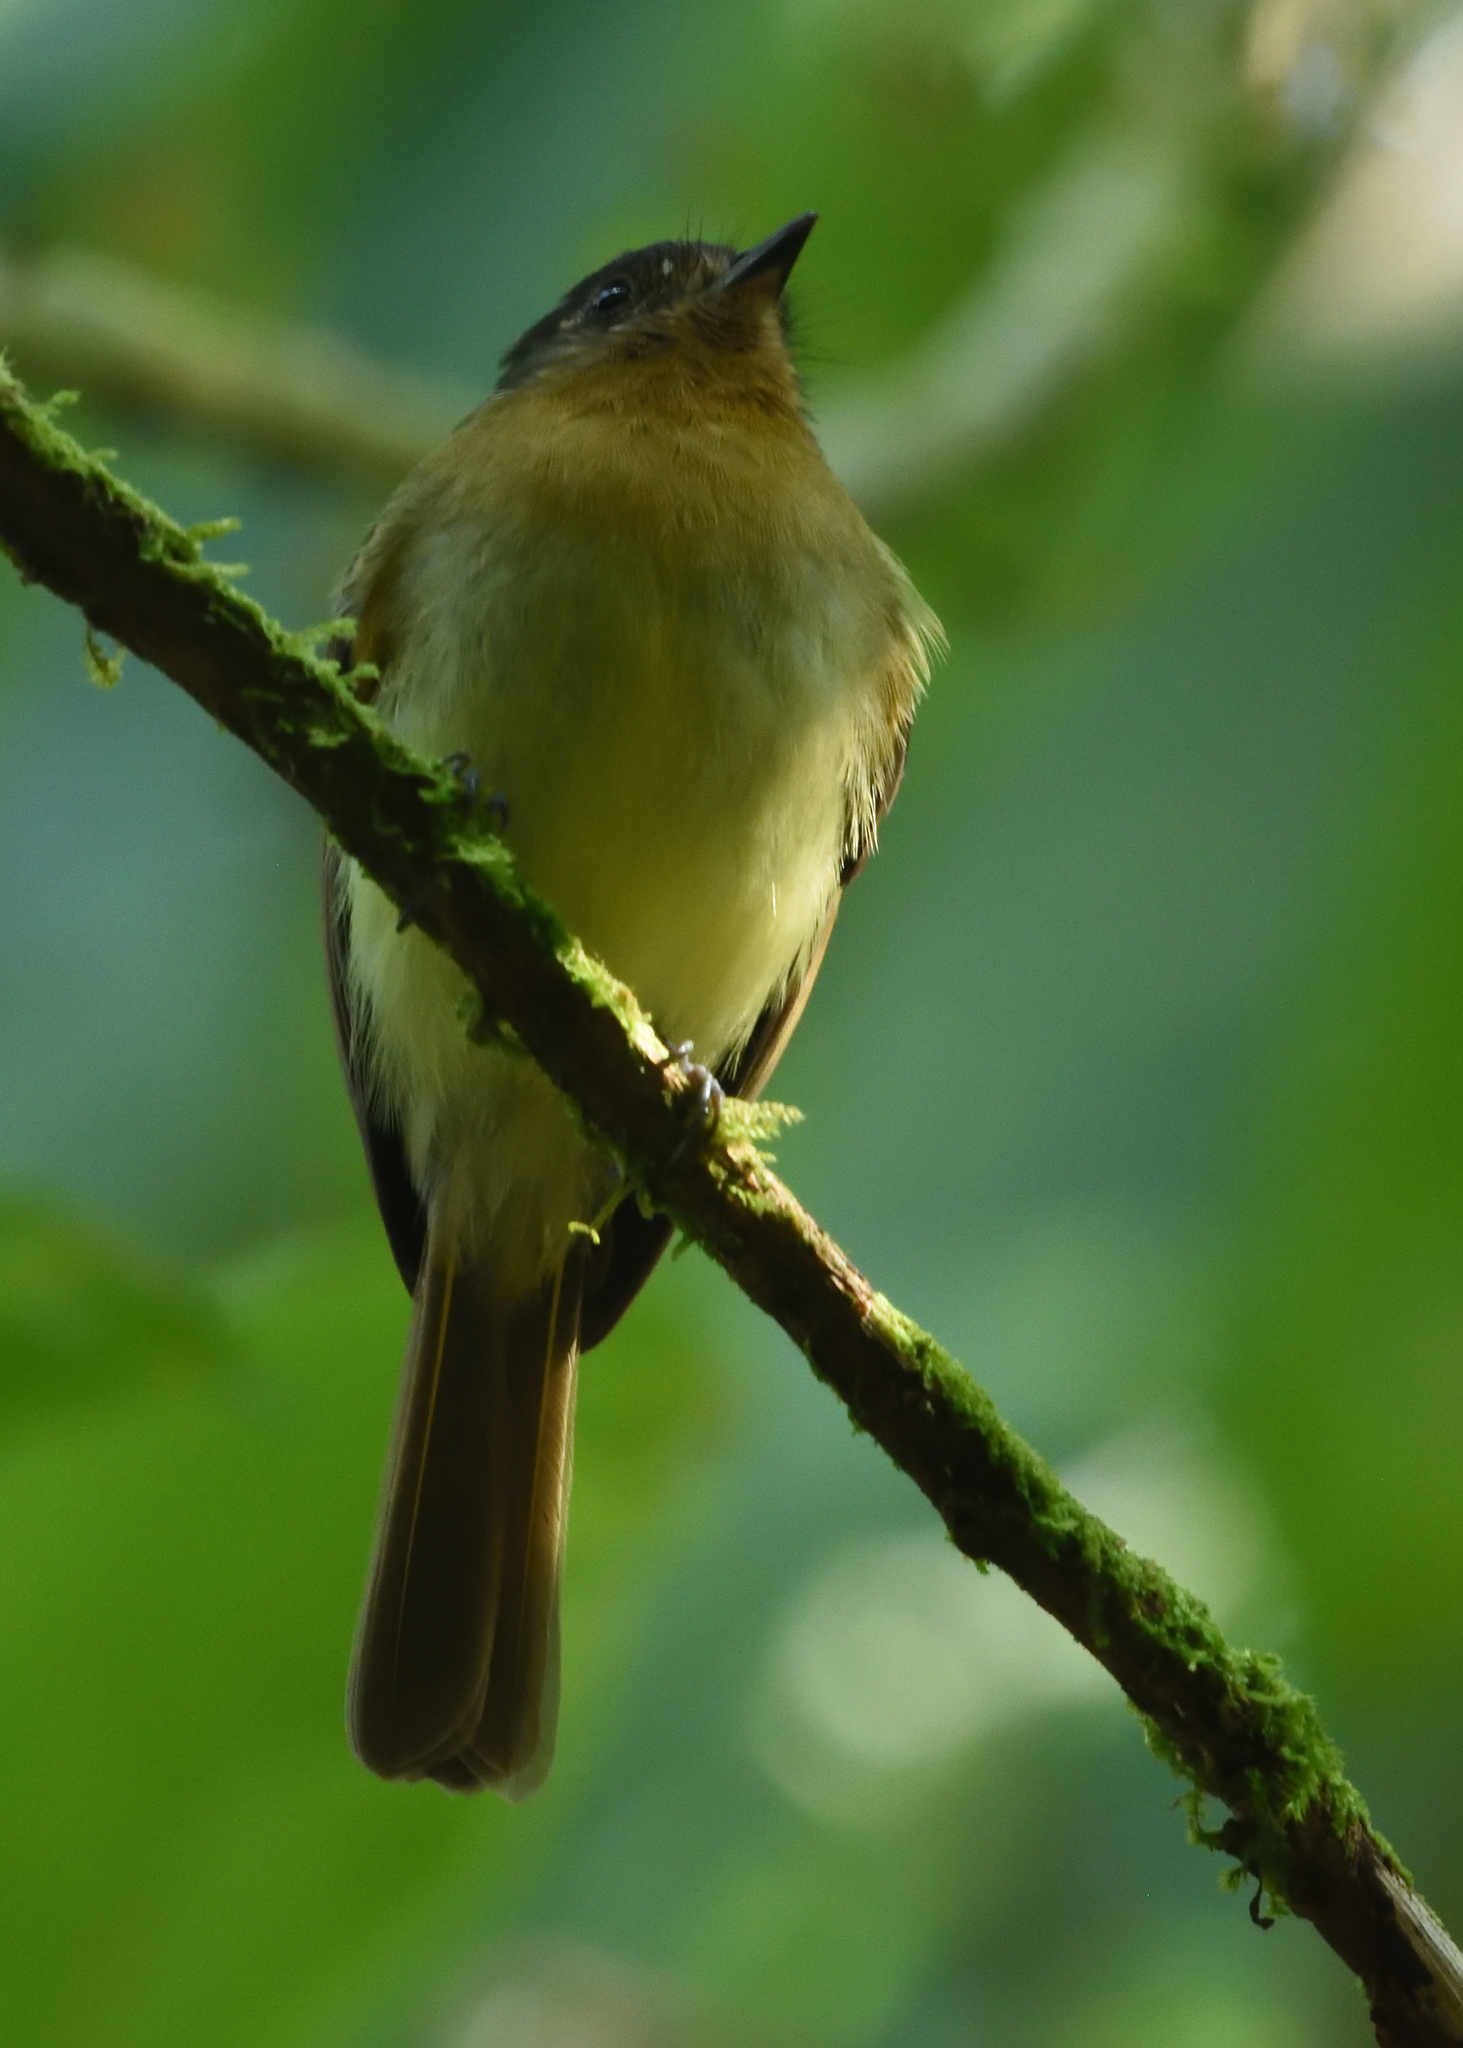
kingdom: Animalia
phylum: Chordata
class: Aves
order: Passeriformes
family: Tyrannidae
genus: Leptopogon
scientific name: Leptopogon rufipectus
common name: Rufous-breasted flycatcher
